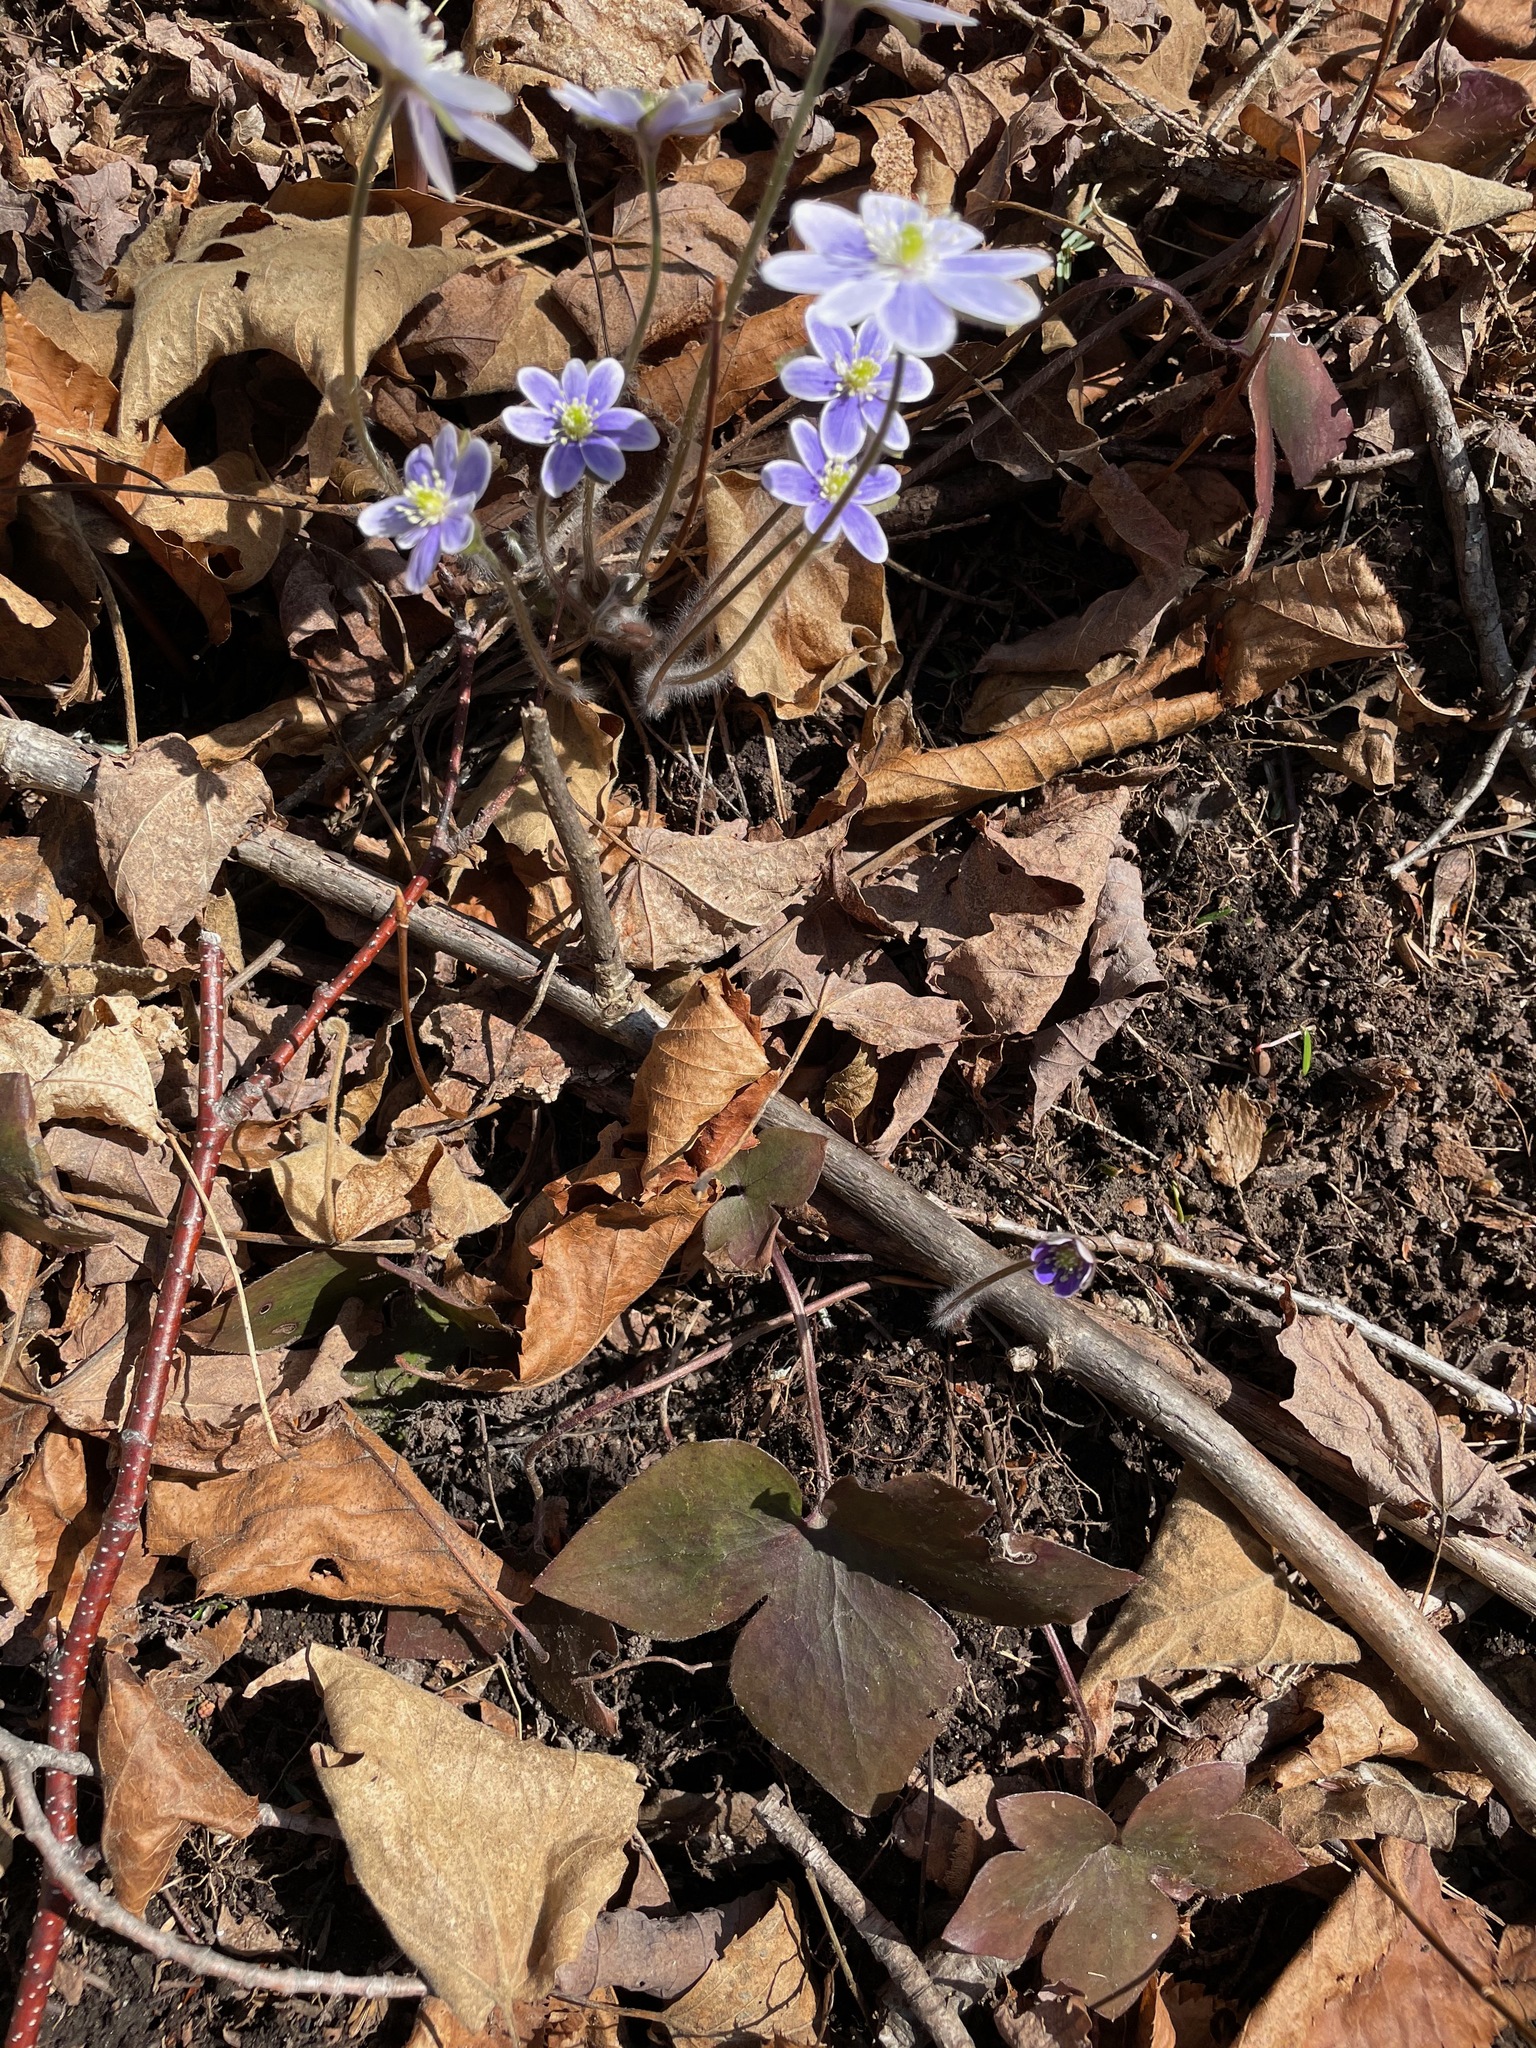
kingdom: Plantae
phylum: Tracheophyta
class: Magnoliopsida
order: Ranunculales
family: Ranunculaceae
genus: Hepatica
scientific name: Hepatica acutiloba
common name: Sharp-lobed hepatica
